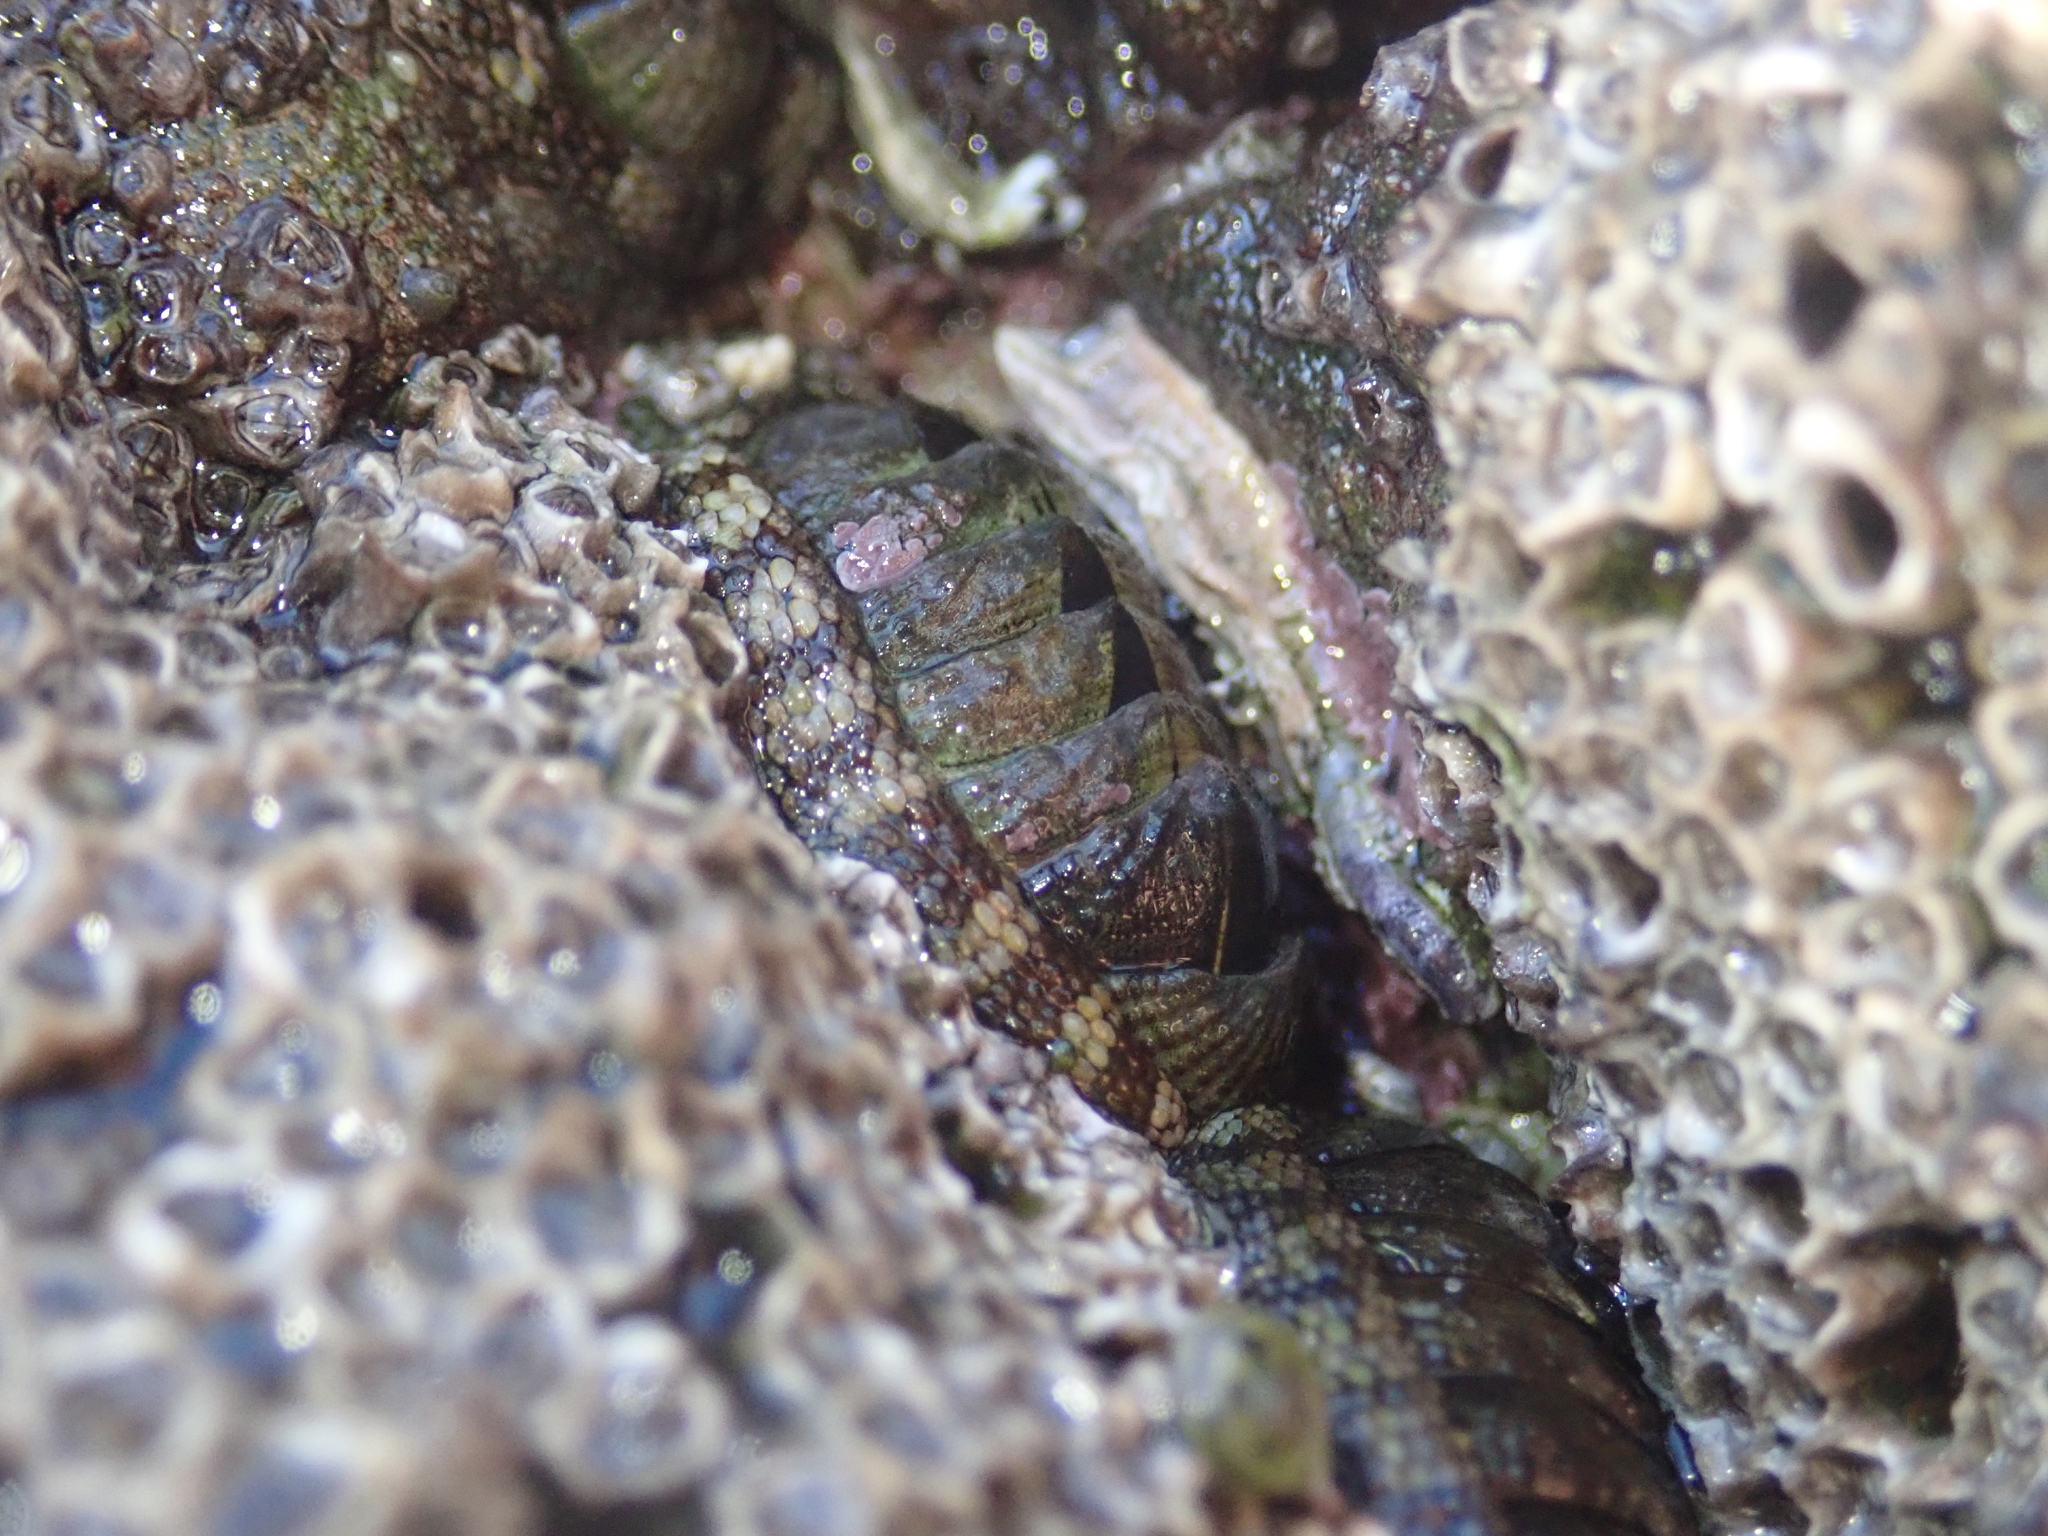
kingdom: Animalia
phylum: Mollusca
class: Polyplacophora
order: Chitonida
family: Chitonidae
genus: Sypharochiton
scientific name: Sypharochiton pelliserpentis
